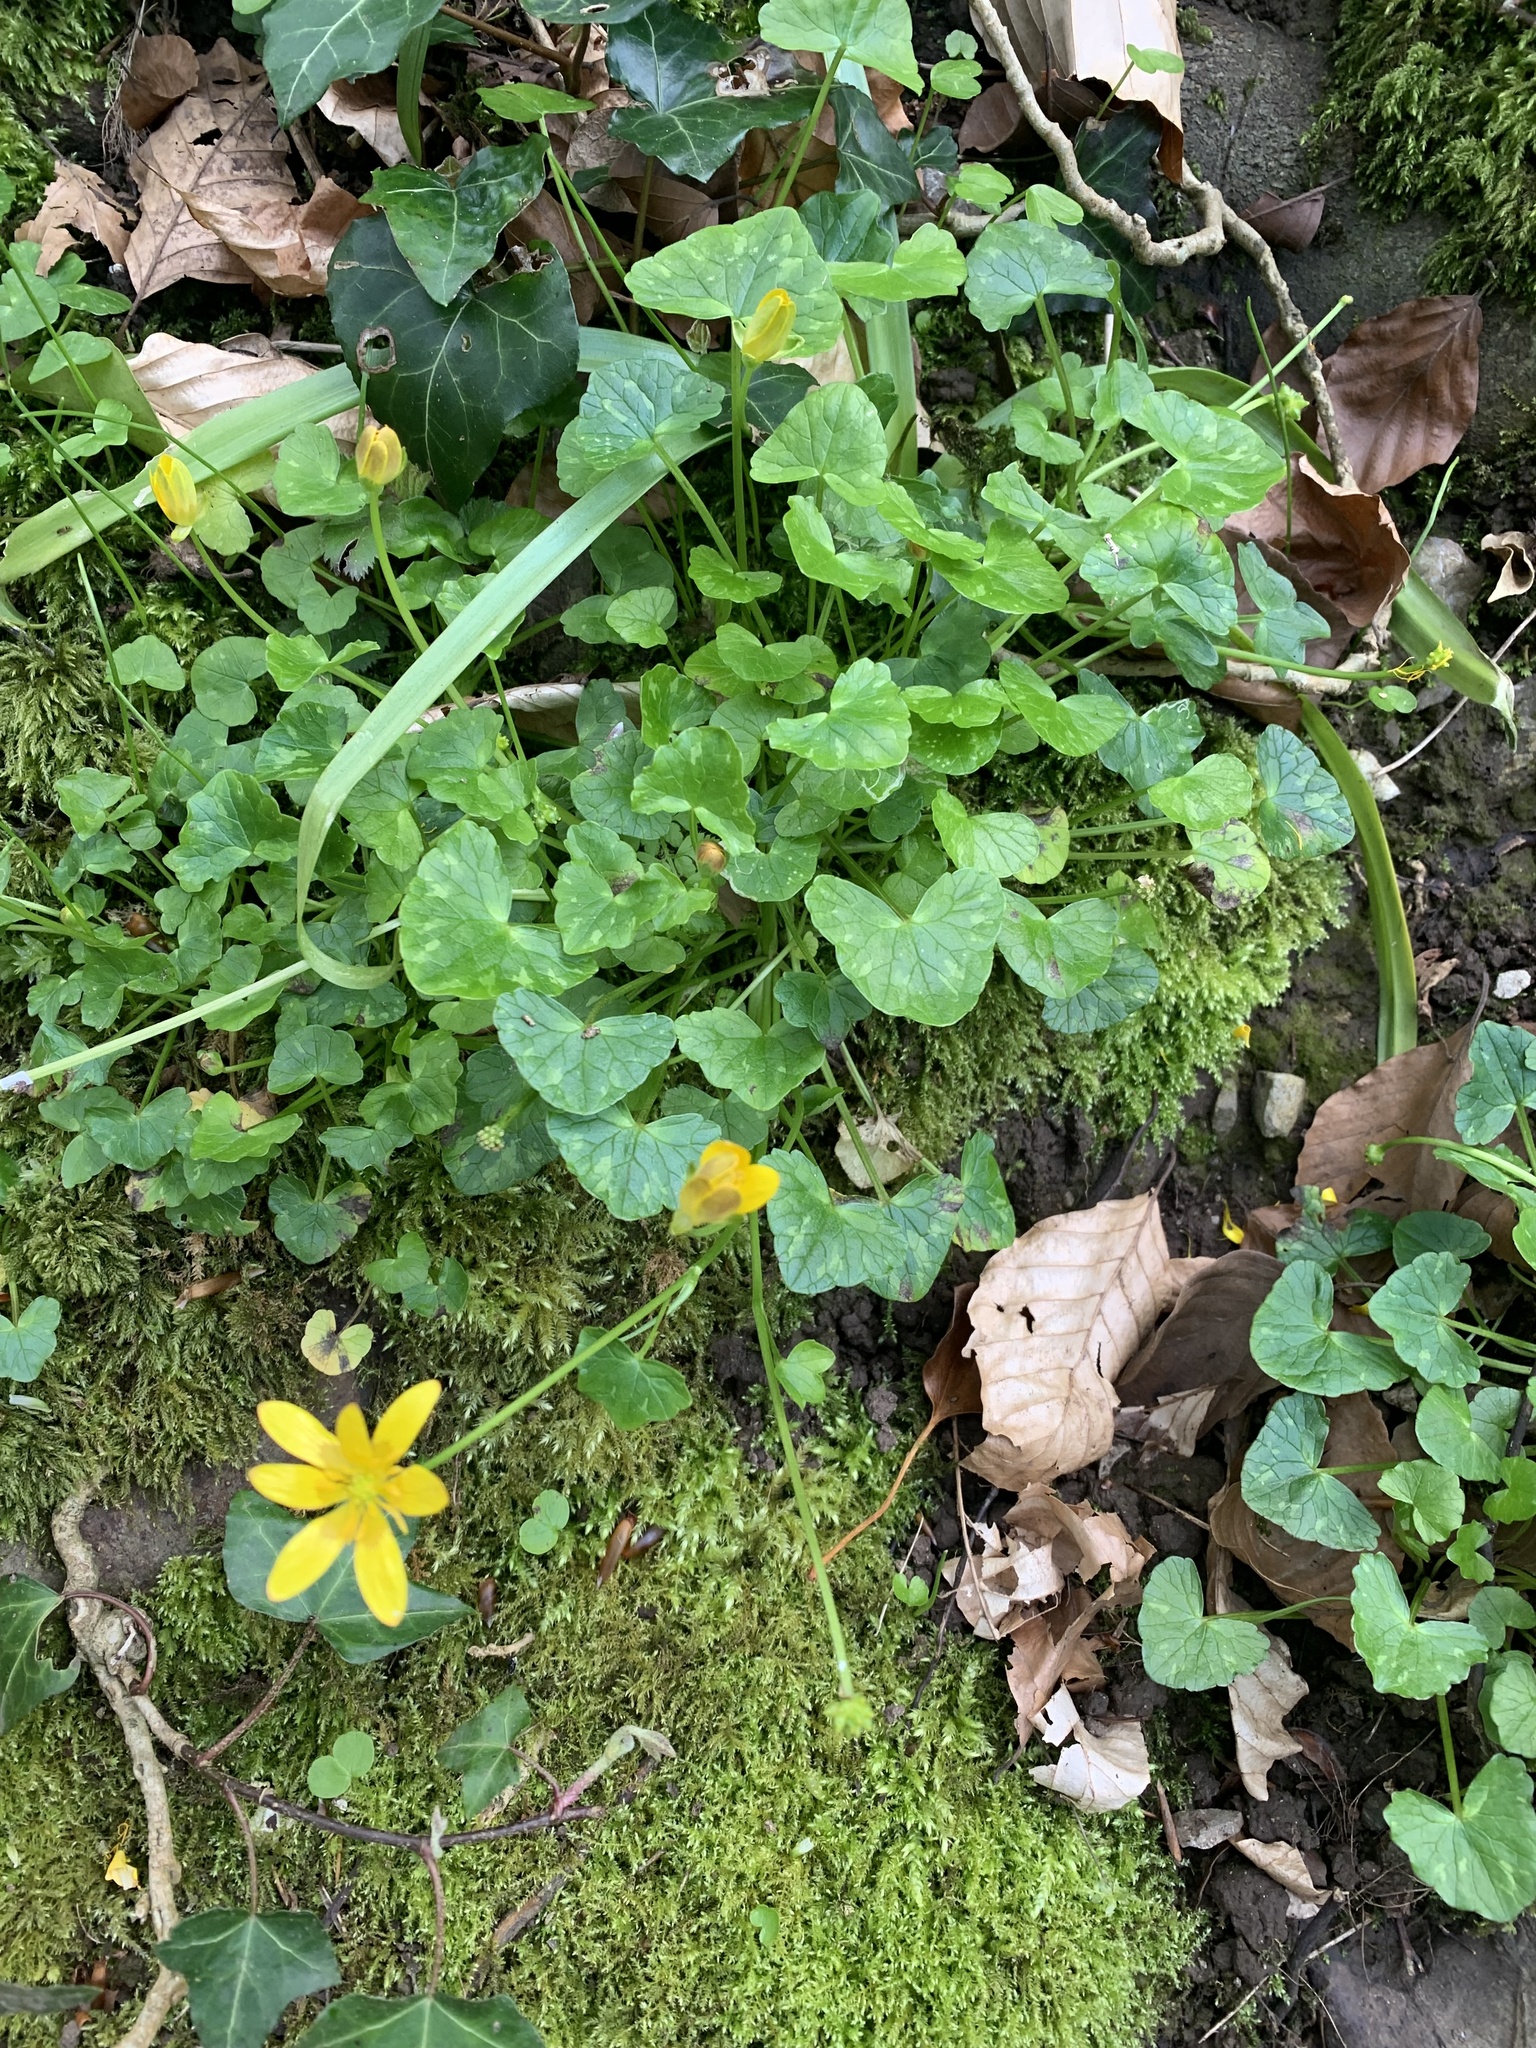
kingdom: Plantae
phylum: Tracheophyta
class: Magnoliopsida
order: Ranunculales
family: Ranunculaceae
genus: Ficaria
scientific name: Ficaria verna
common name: Lesser celandine
